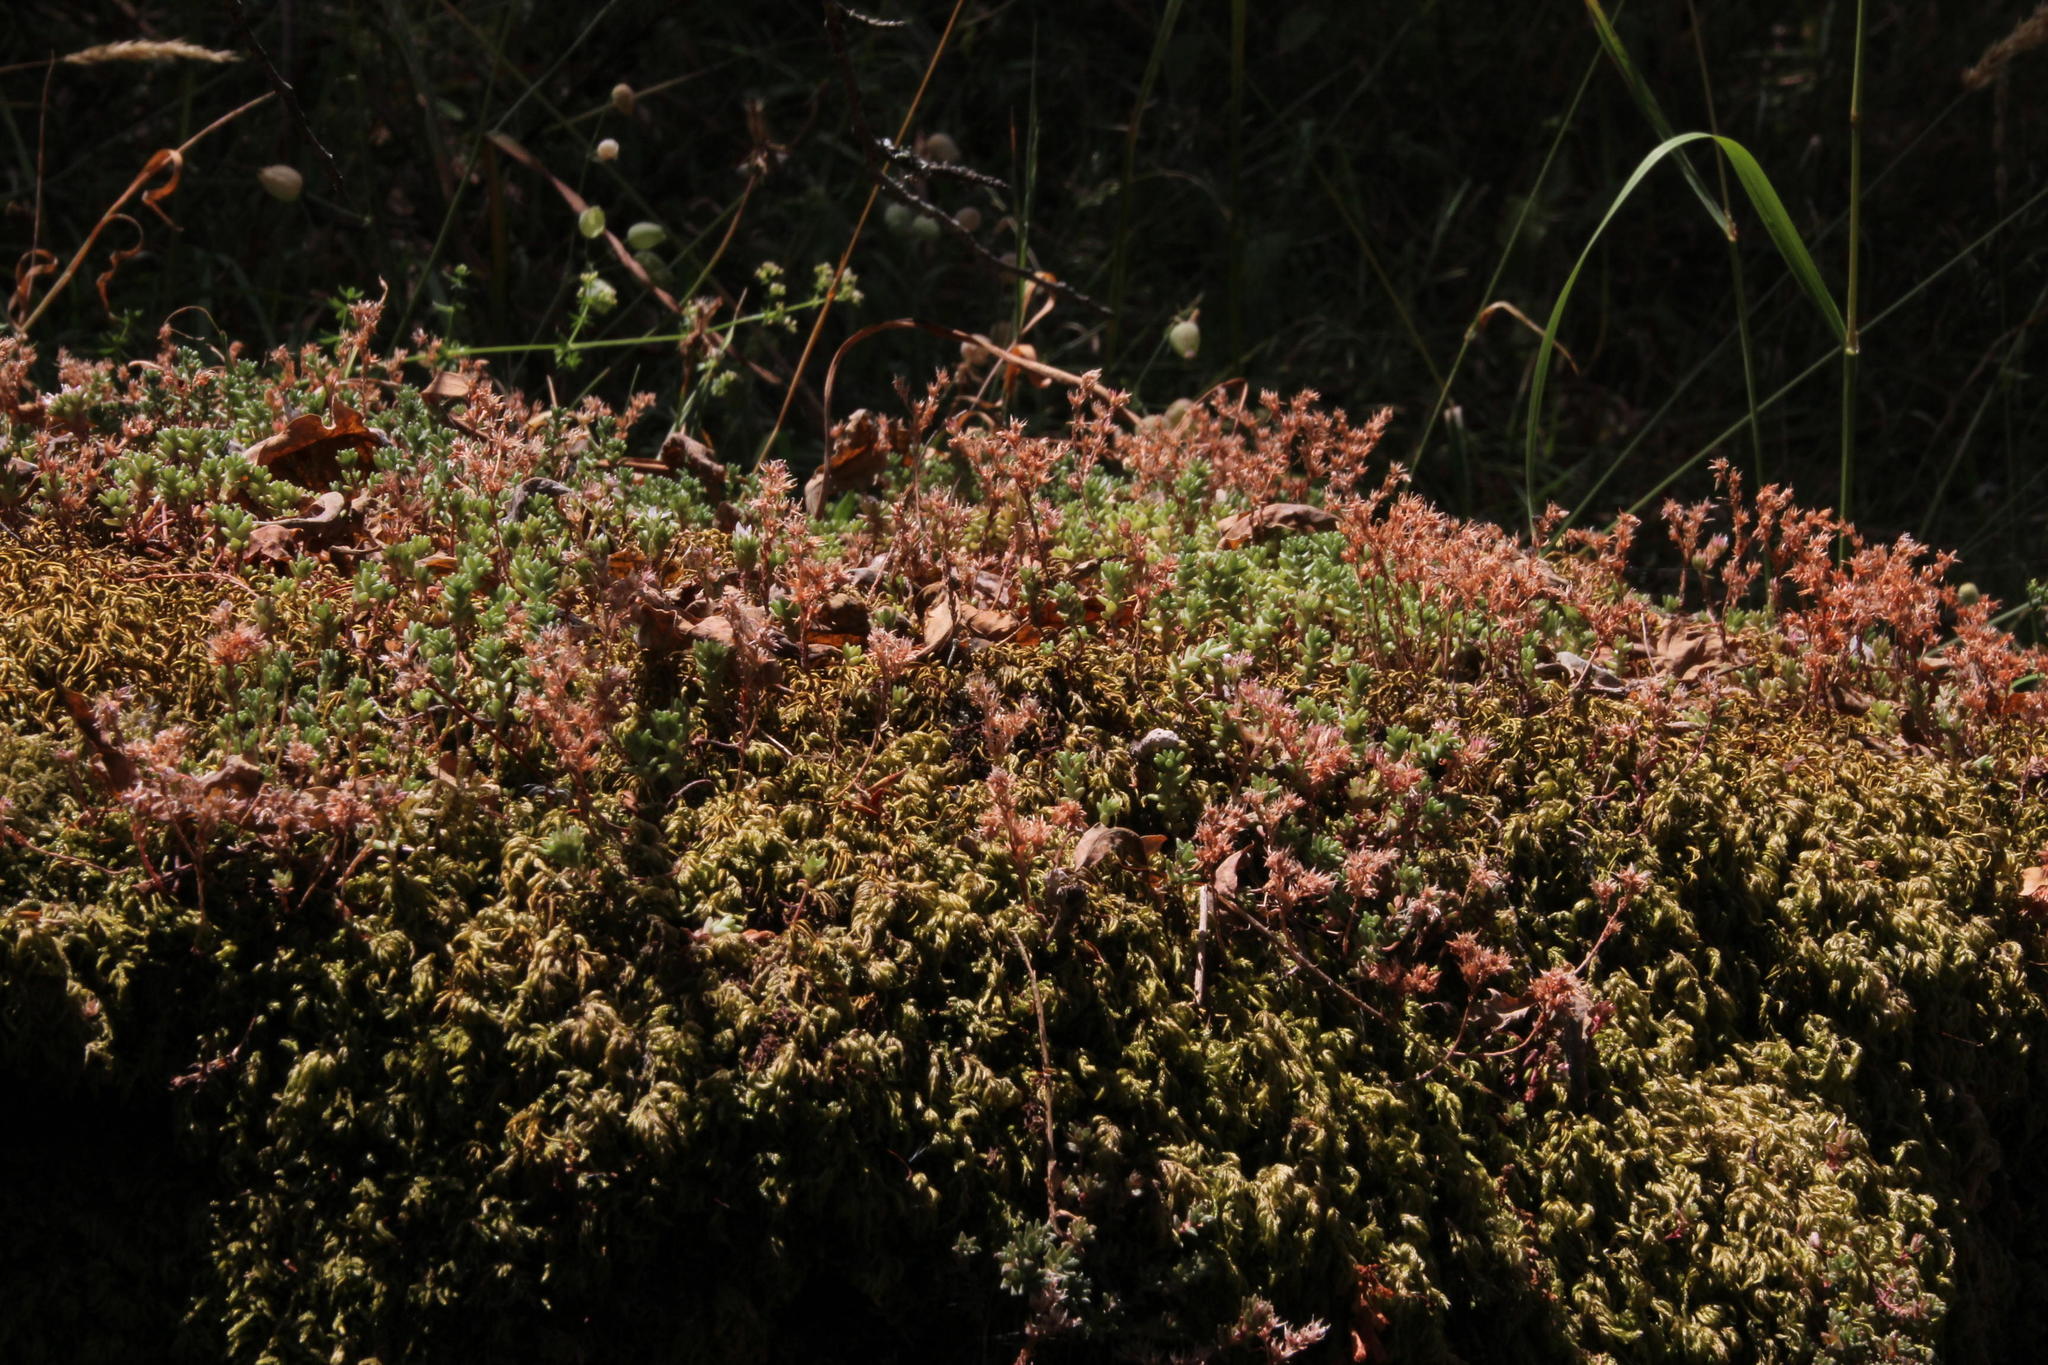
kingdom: Plantae
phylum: Tracheophyta
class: Magnoliopsida
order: Saxifragales
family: Crassulaceae
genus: Sedum
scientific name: Sedum anglicum
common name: English stonecrop
